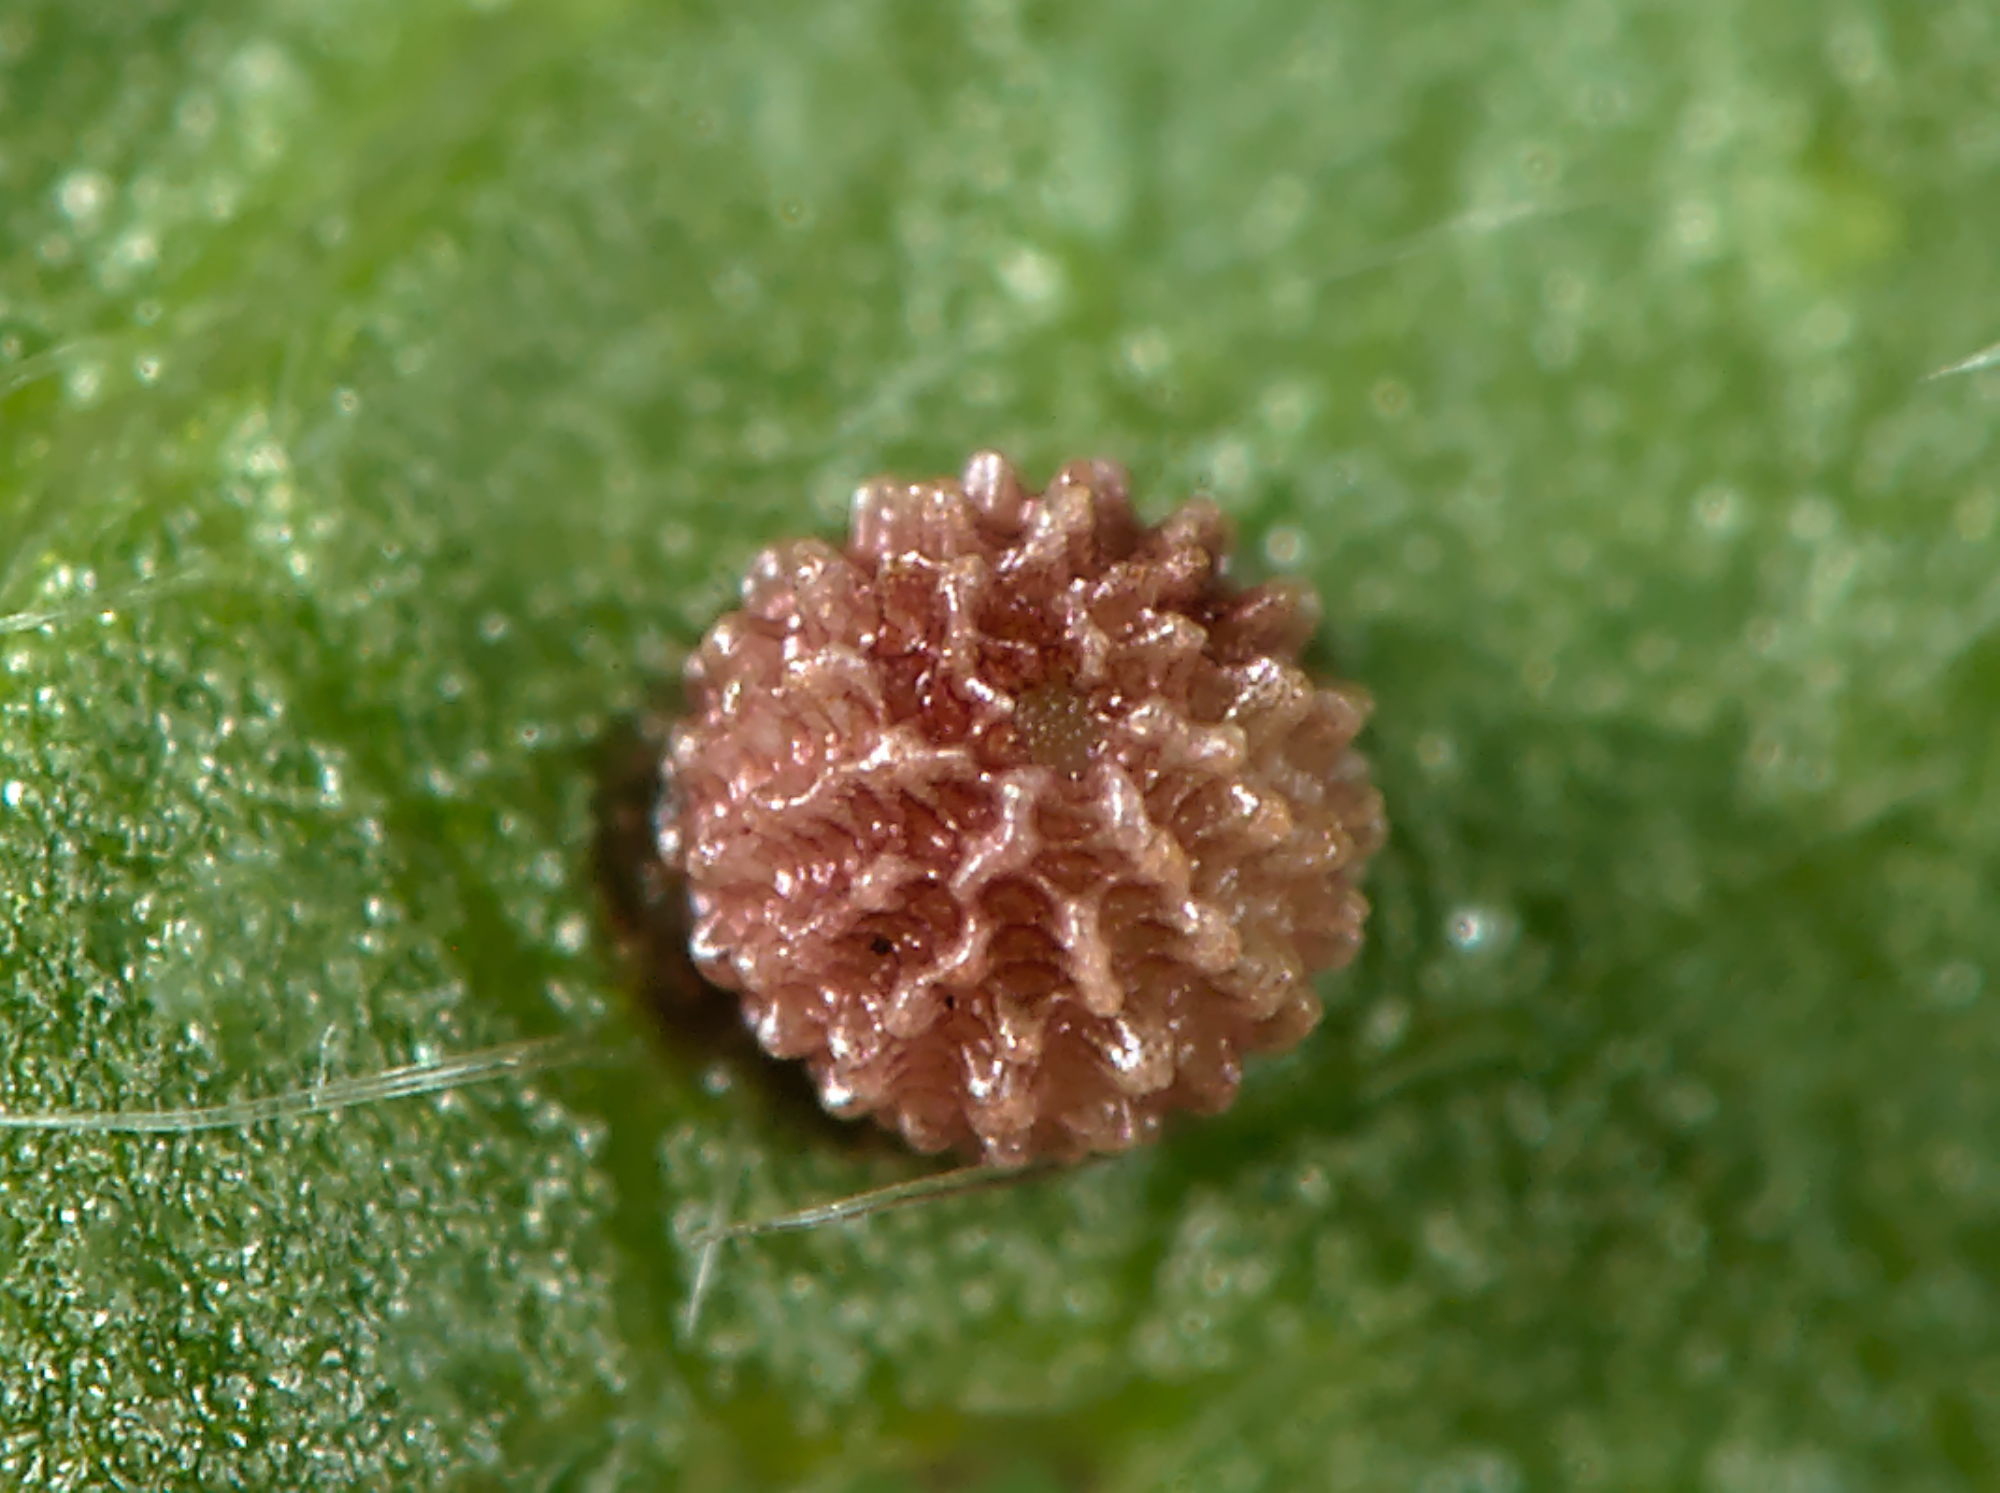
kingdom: Animalia
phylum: Arthropoda
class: Insecta
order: Lepidoptera
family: Hesperiidae
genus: Carcharodus
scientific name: Carcharodus alceae
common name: Mallow skipper
